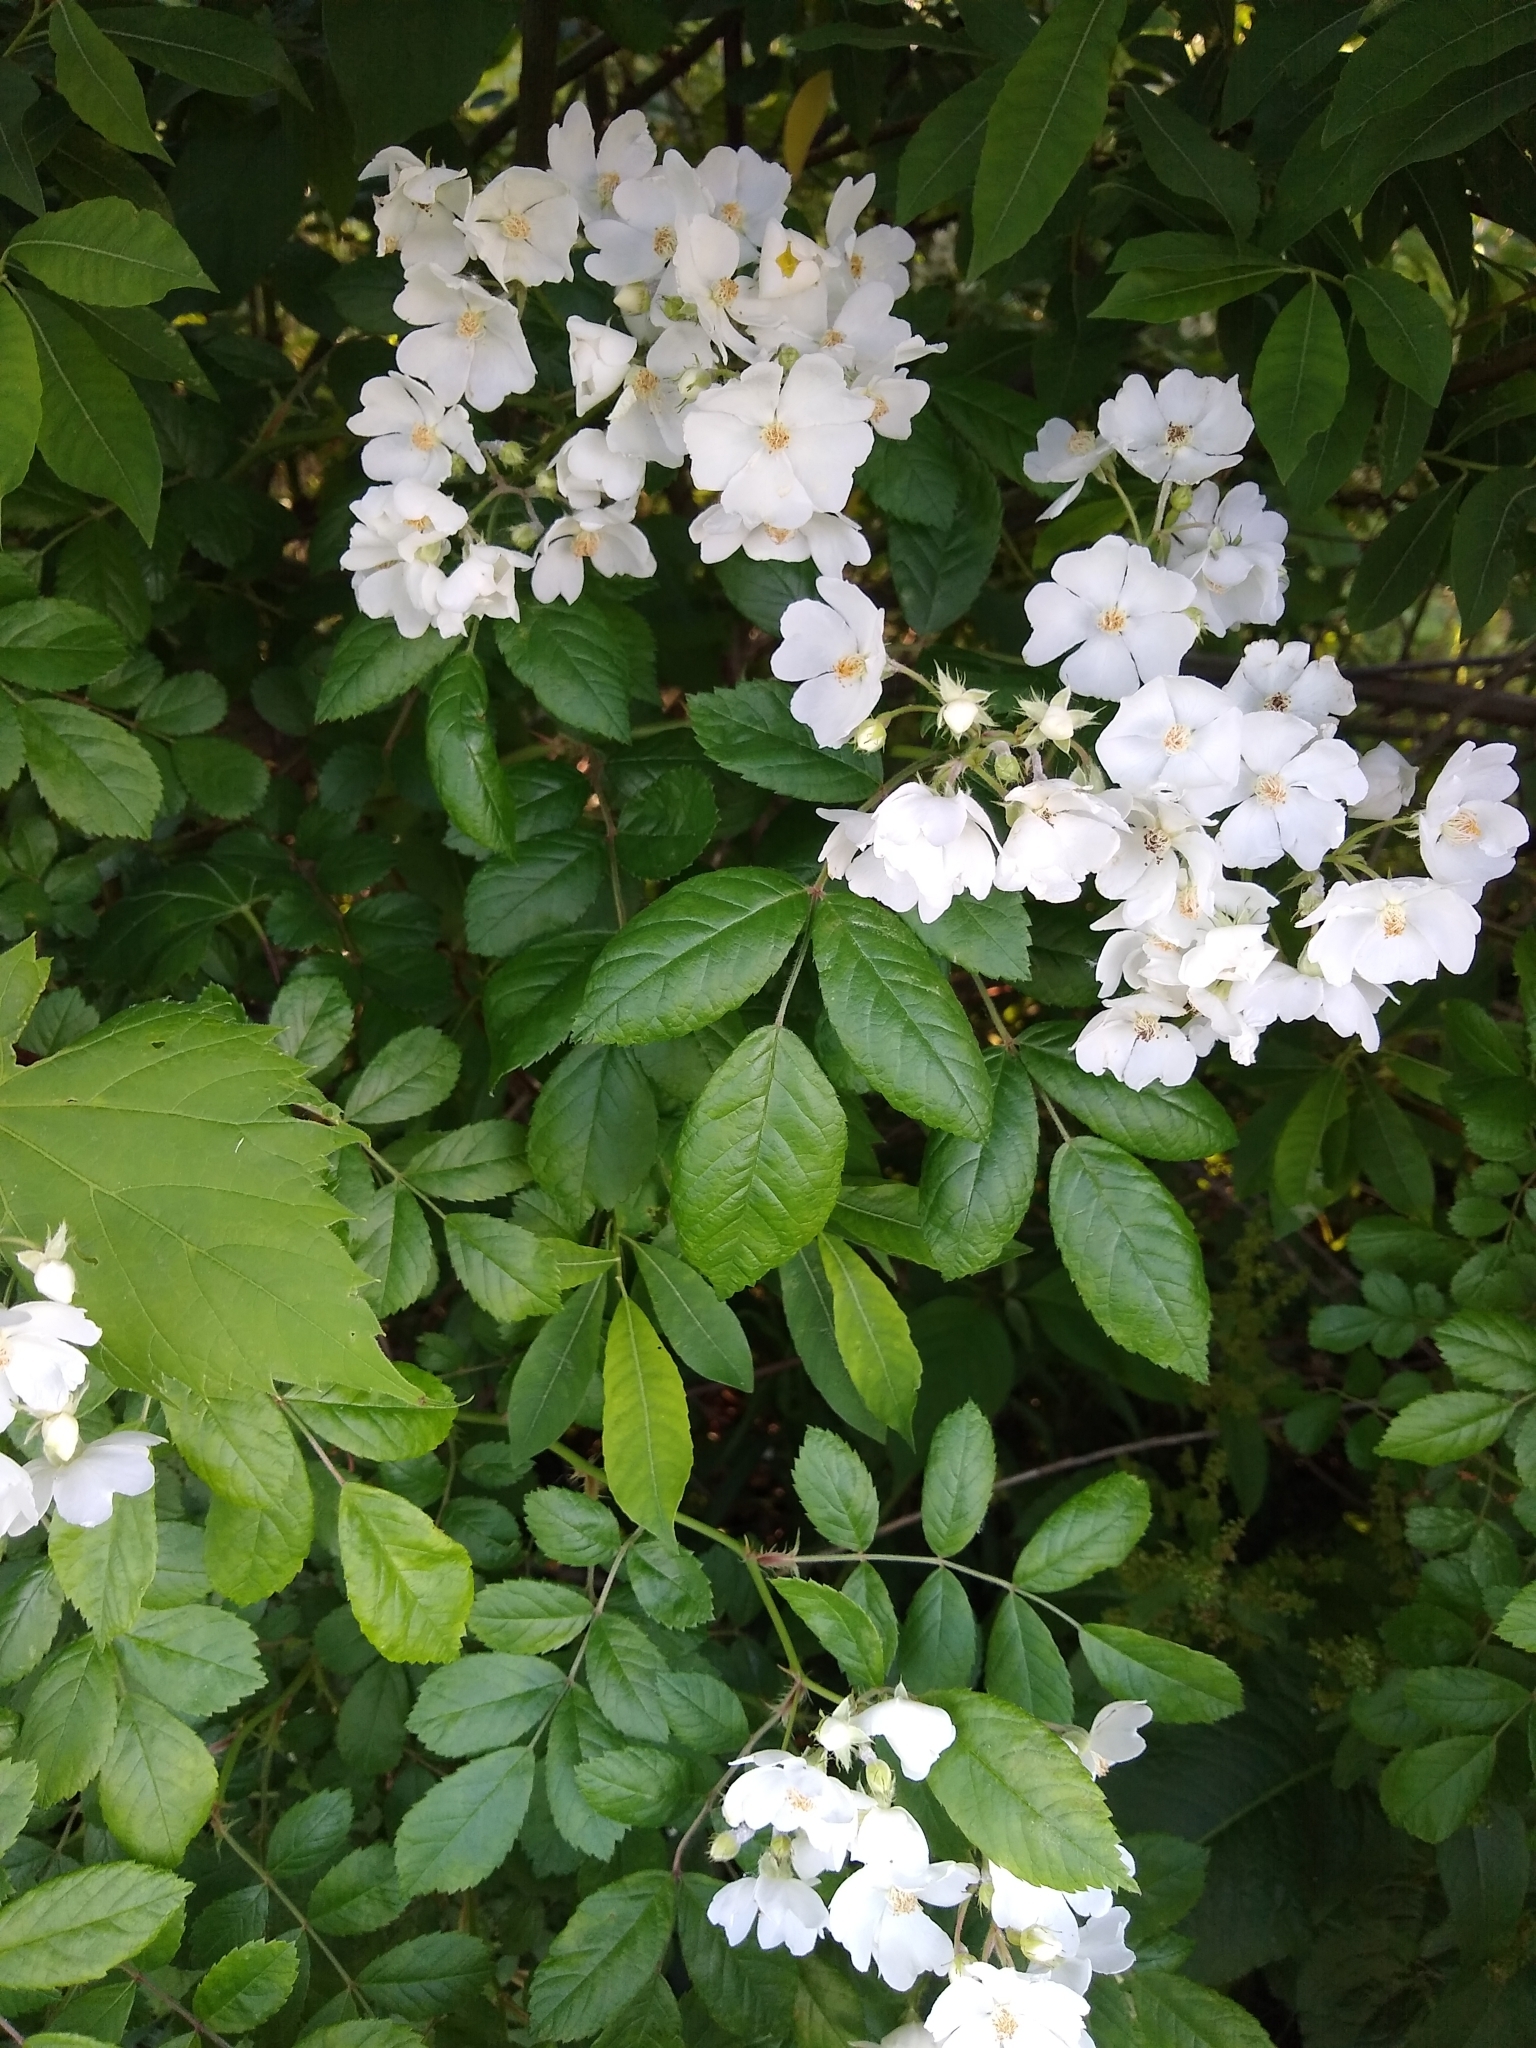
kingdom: Plantae
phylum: Tracheophyta
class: Magnoliopsida
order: Rosales
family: Rosaceae
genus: Rosa
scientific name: Rosa multiflora
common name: Multiflora rose
